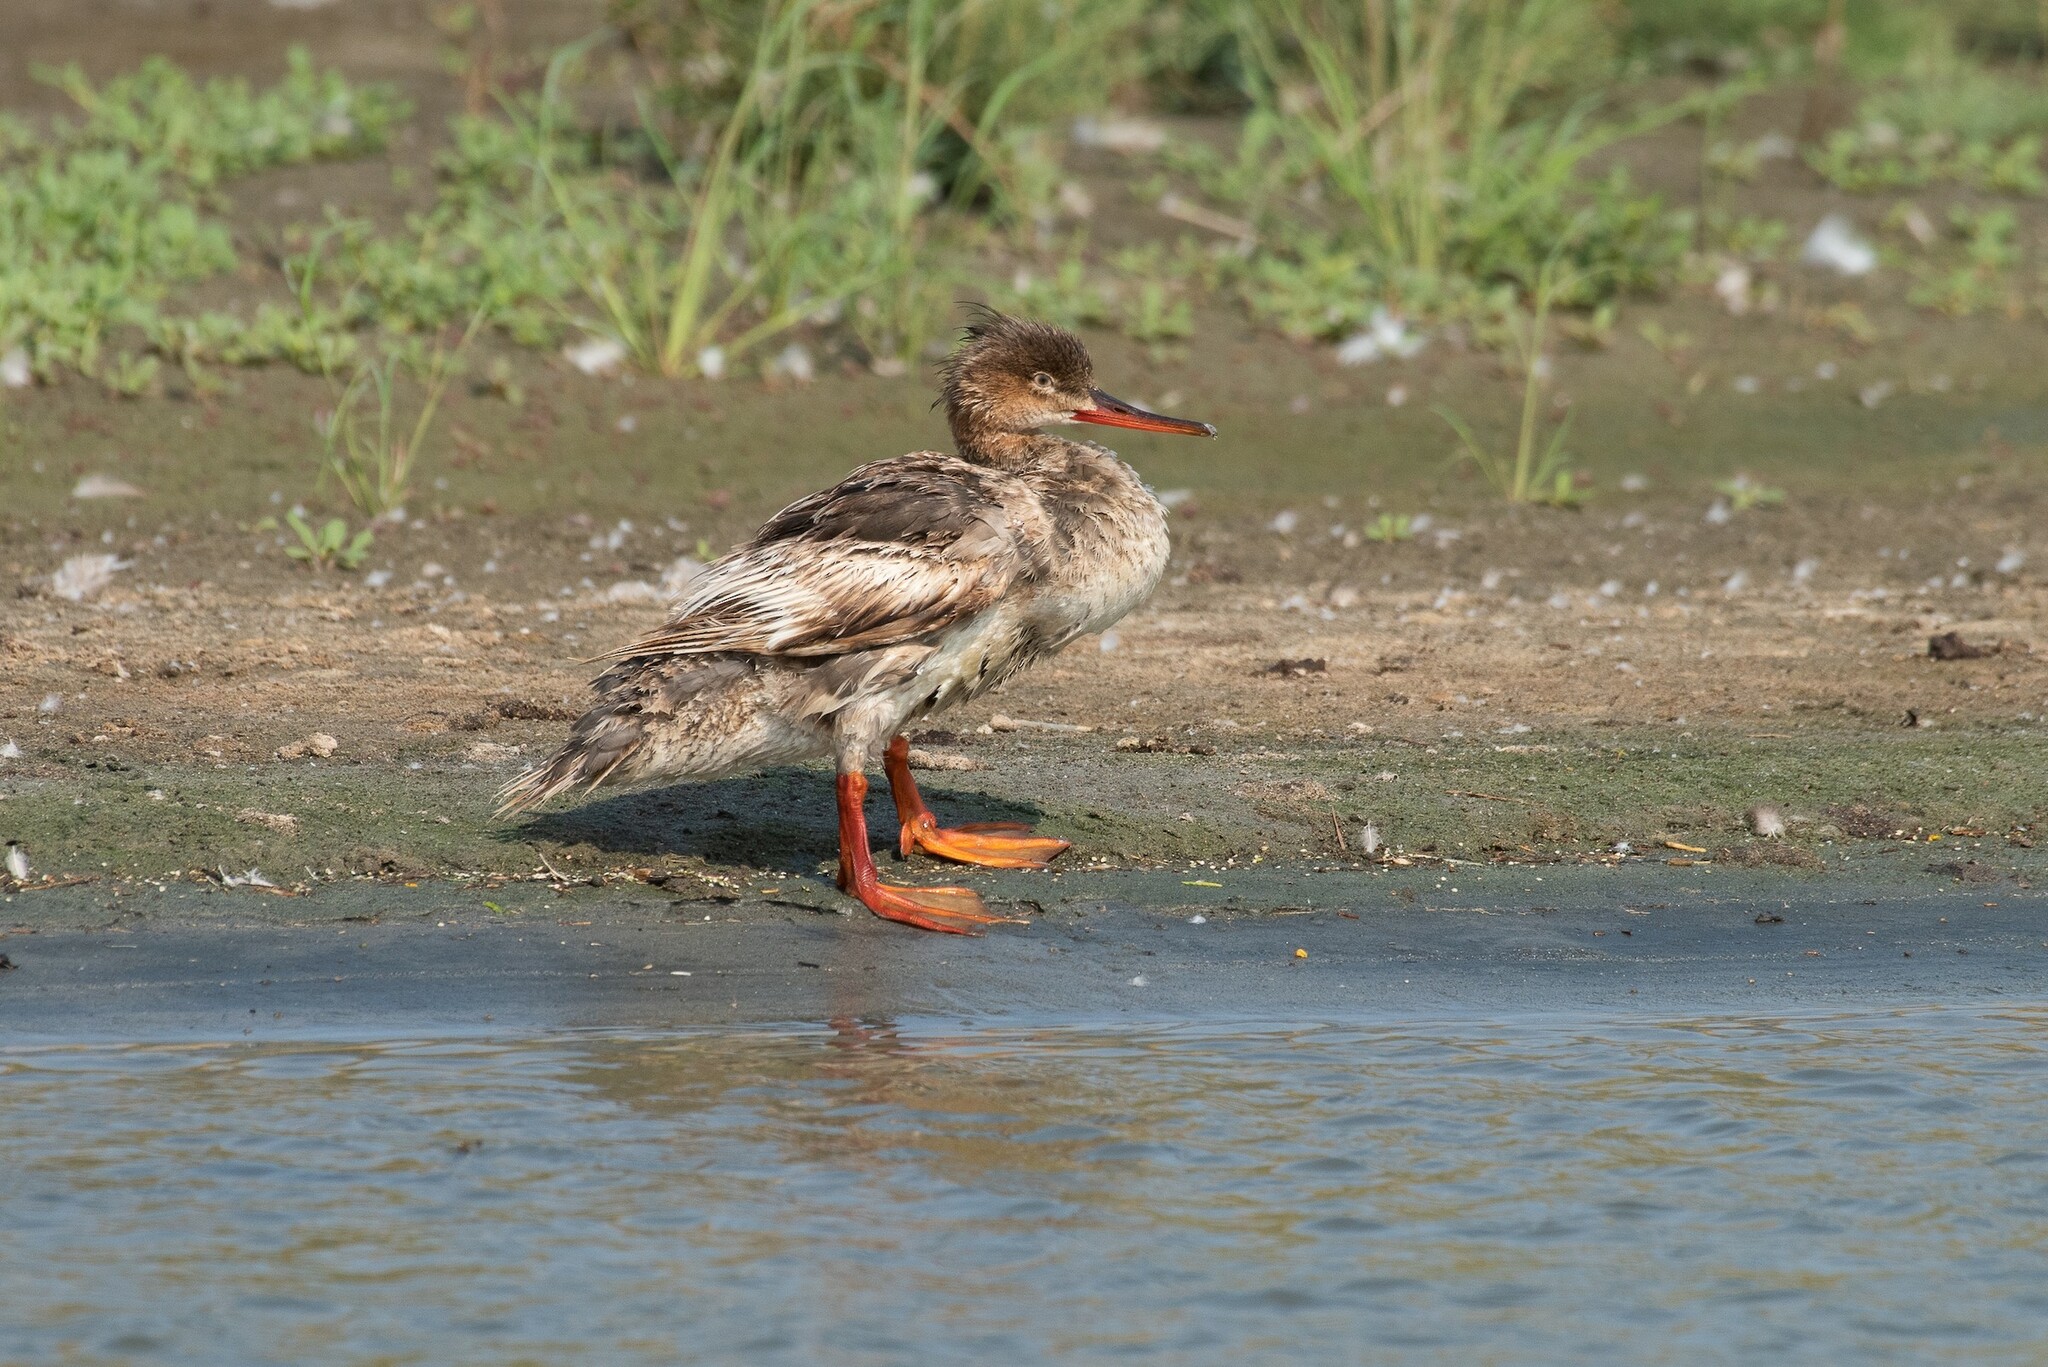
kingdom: Animalia
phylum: Chordata
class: Aves
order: Anseriformes
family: Anatidae
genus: Mergus
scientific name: Mergus serrator
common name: Red-breasted merganser
